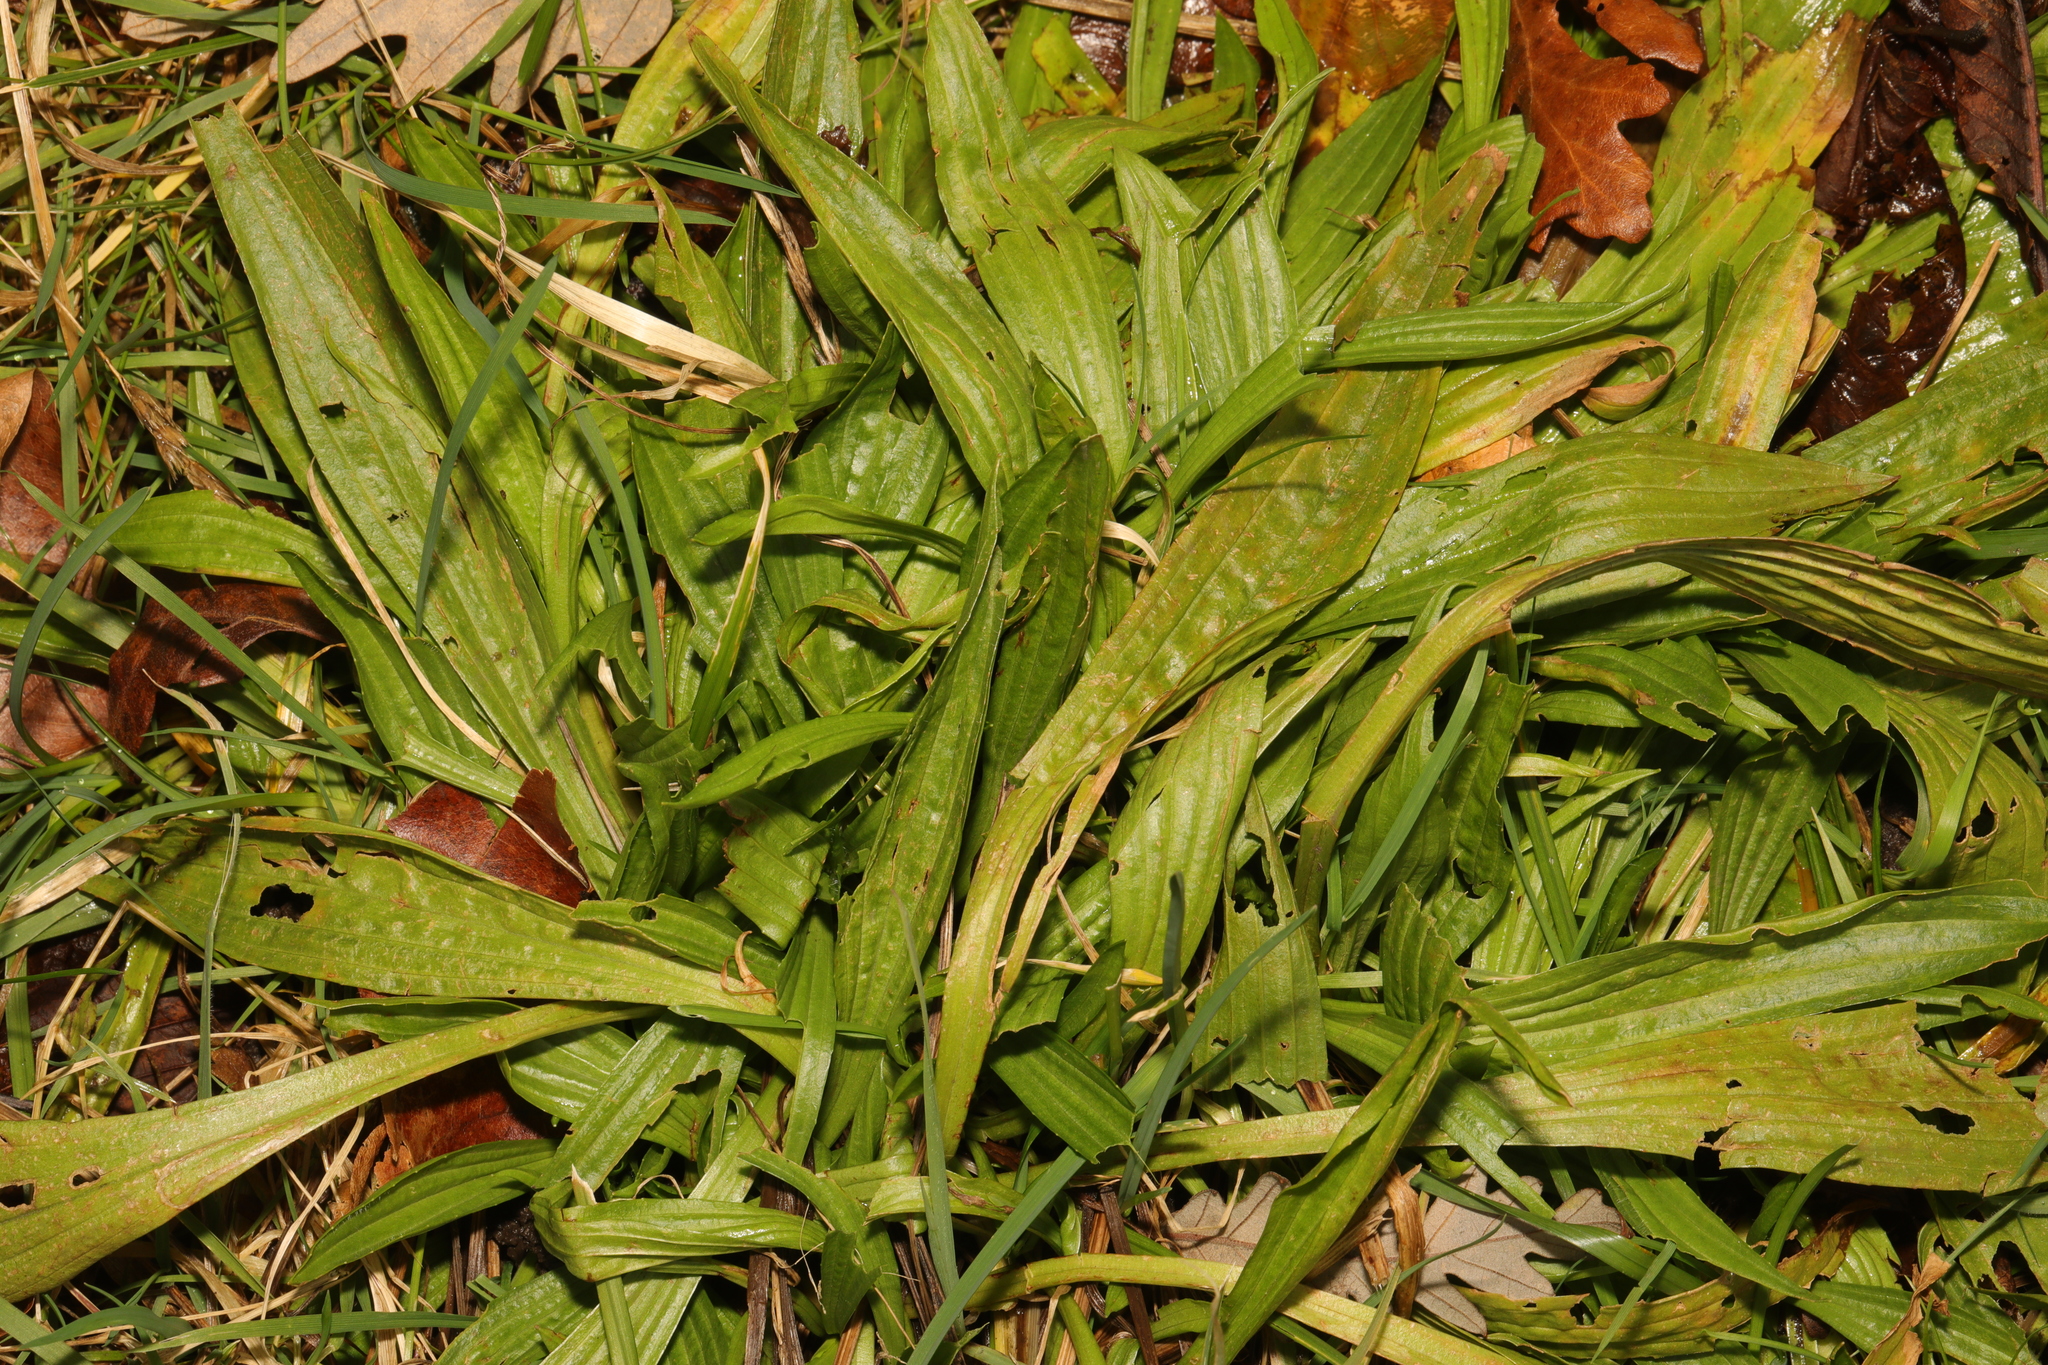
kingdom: Plantae
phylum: Tracheophyta
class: Magnoliopsida
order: Lamiales
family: Plantaginaceae
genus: Plantago
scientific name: Plantago lanceolata
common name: Ribwort plantain
